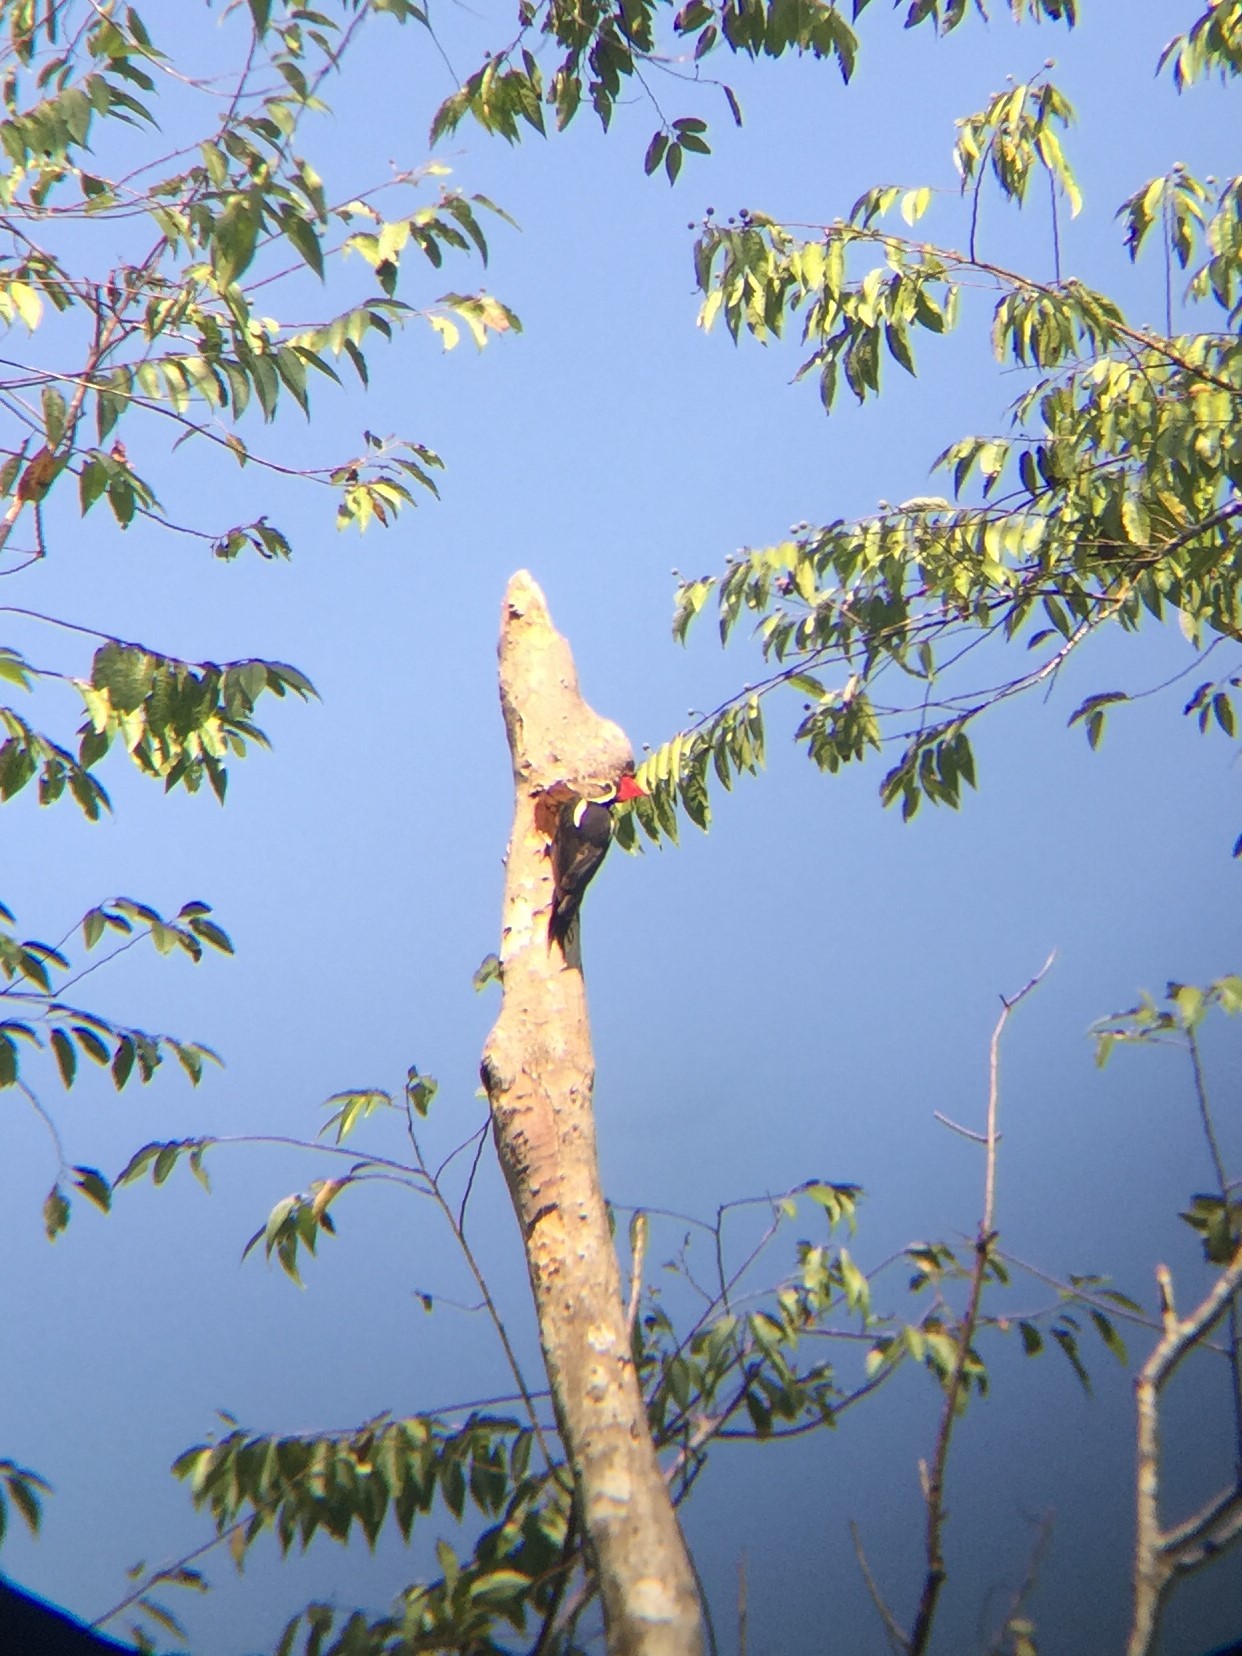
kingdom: Animalia
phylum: Chordata
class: Aves
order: Piciformes
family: Picidae
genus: Dryocopus
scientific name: Dryocopus lineatus
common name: Lineated woodpecker
